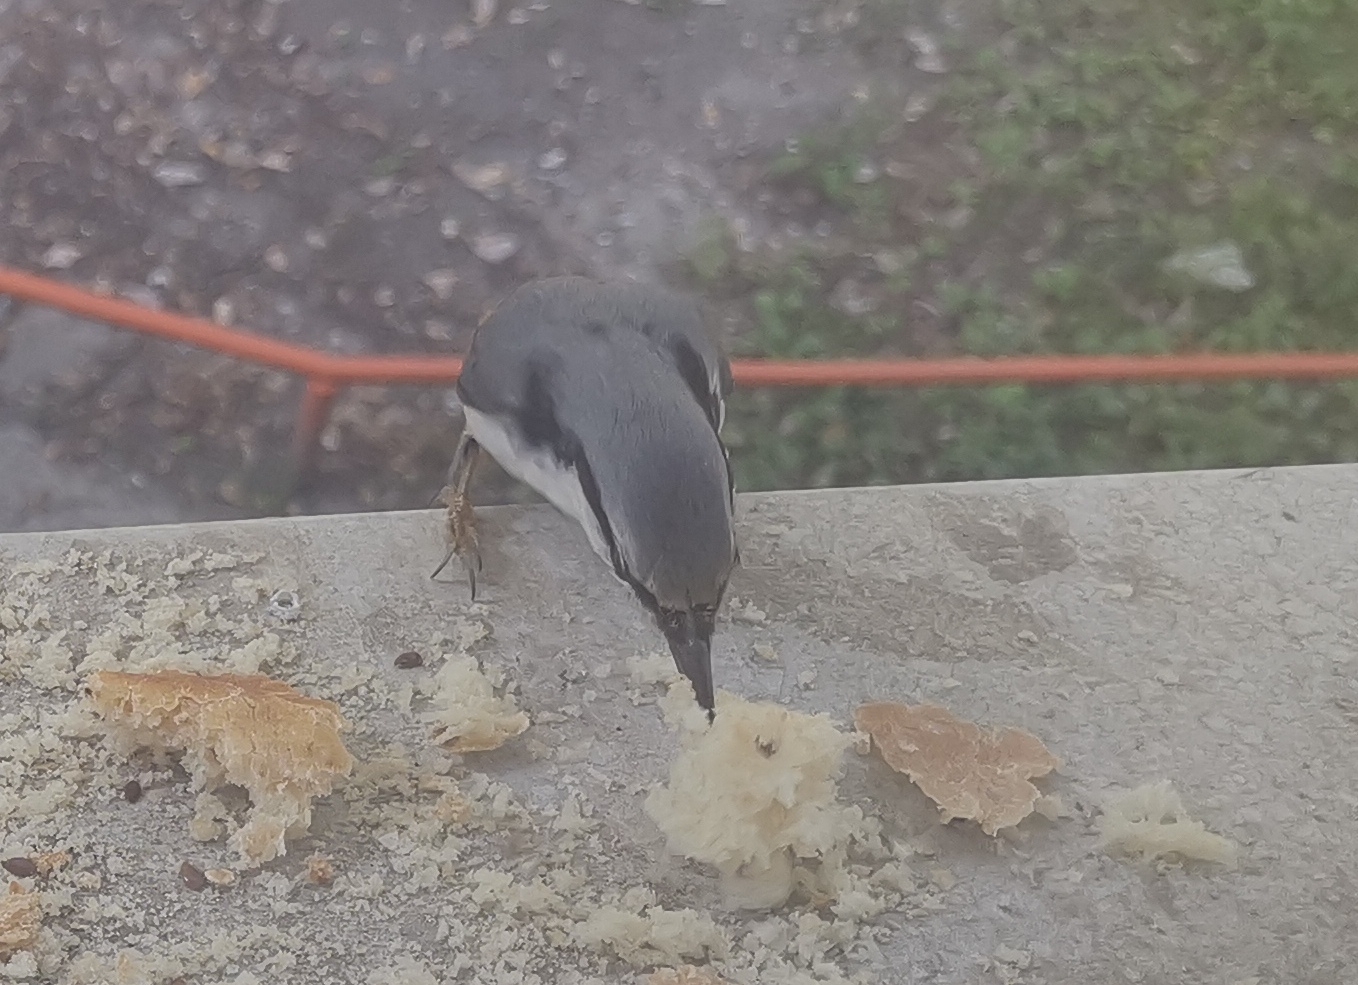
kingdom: Animalia
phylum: Chordata
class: Aves
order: Passeriformes
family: Sittidae
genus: Sitta
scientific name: Sitta europaea
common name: Eurasian nuthatch
